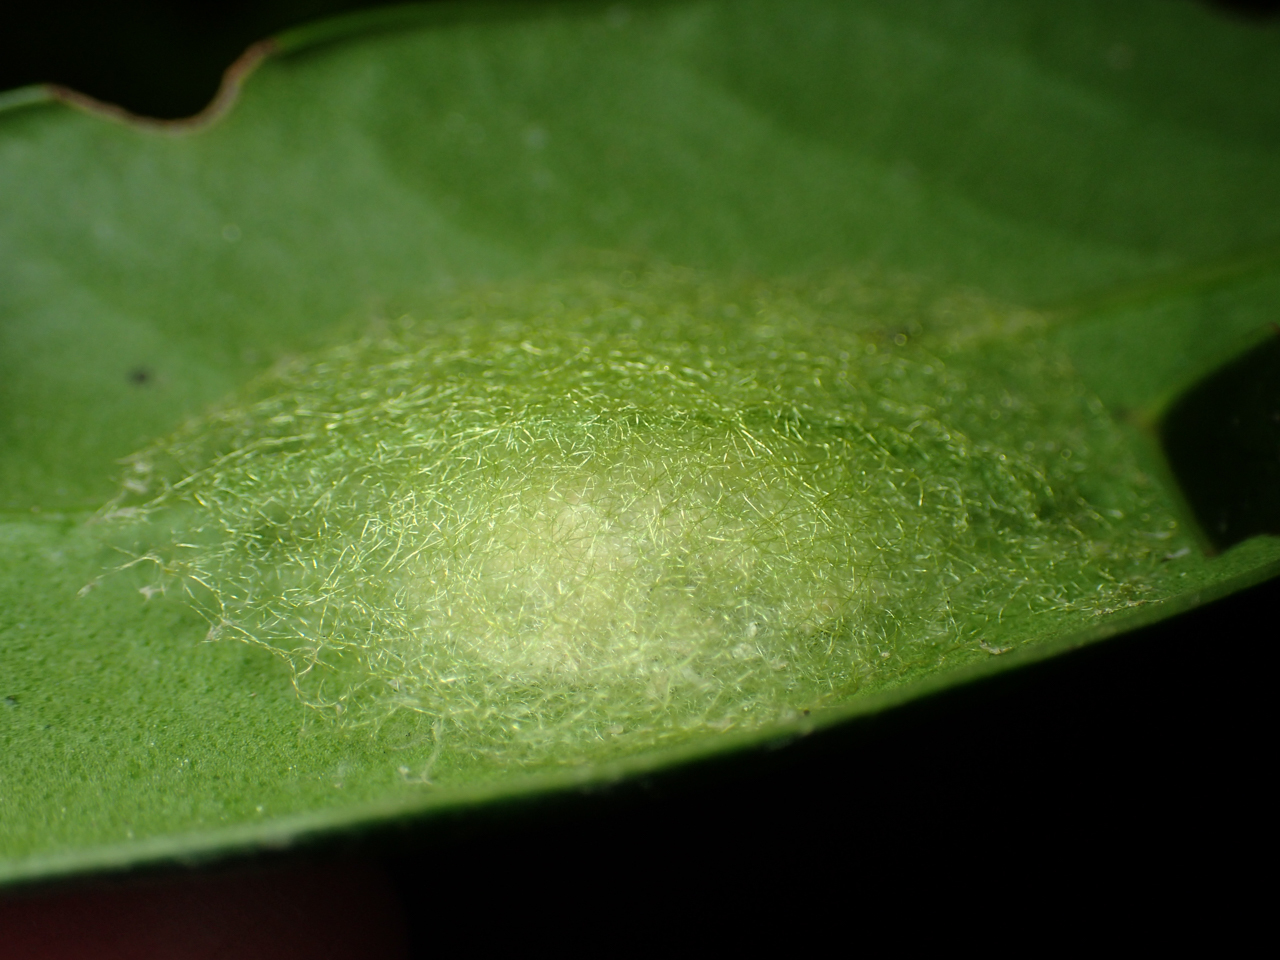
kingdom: Animalia
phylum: Arthropoda
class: Arachnida
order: Araneae
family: Araneidae
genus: Gasteracantha
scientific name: Gasteracantha cancriformis
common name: Orb weavers
